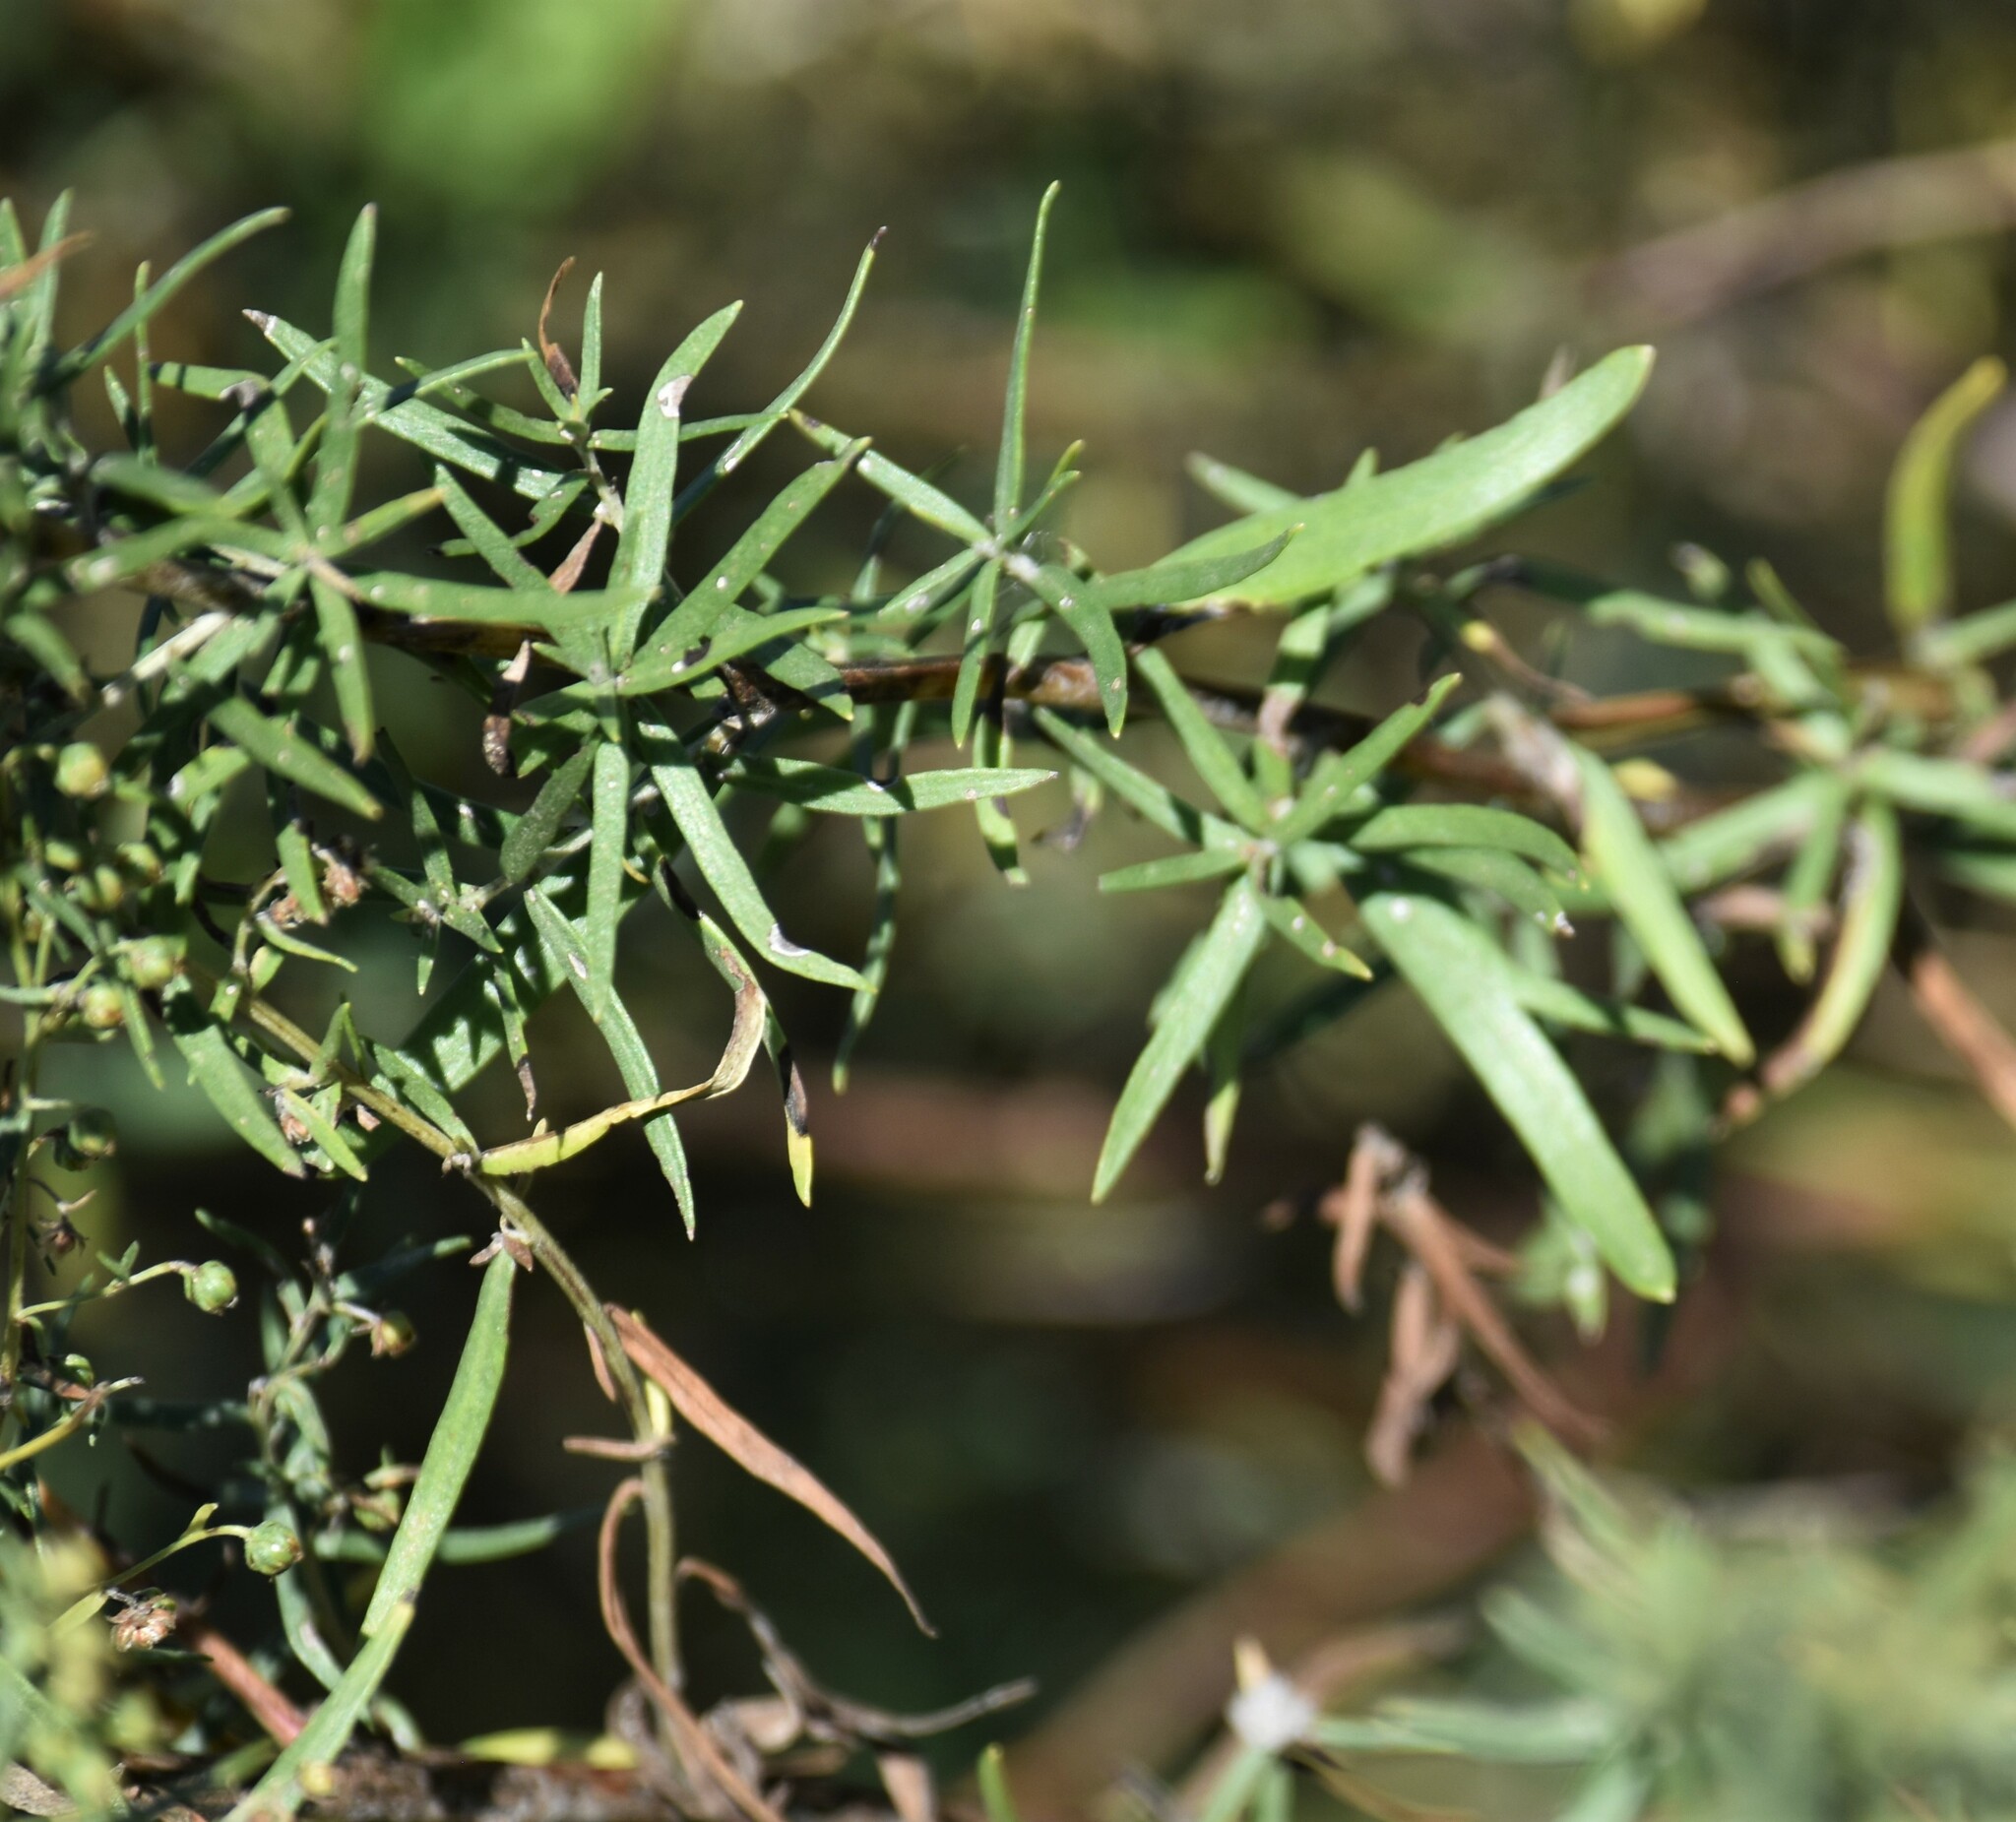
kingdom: Plantae
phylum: Tracheophyta
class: Magnoliopsida
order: Asterales
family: Asteraceae
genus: Artemisia
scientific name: Artemisia dracunculus
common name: Tarragon
